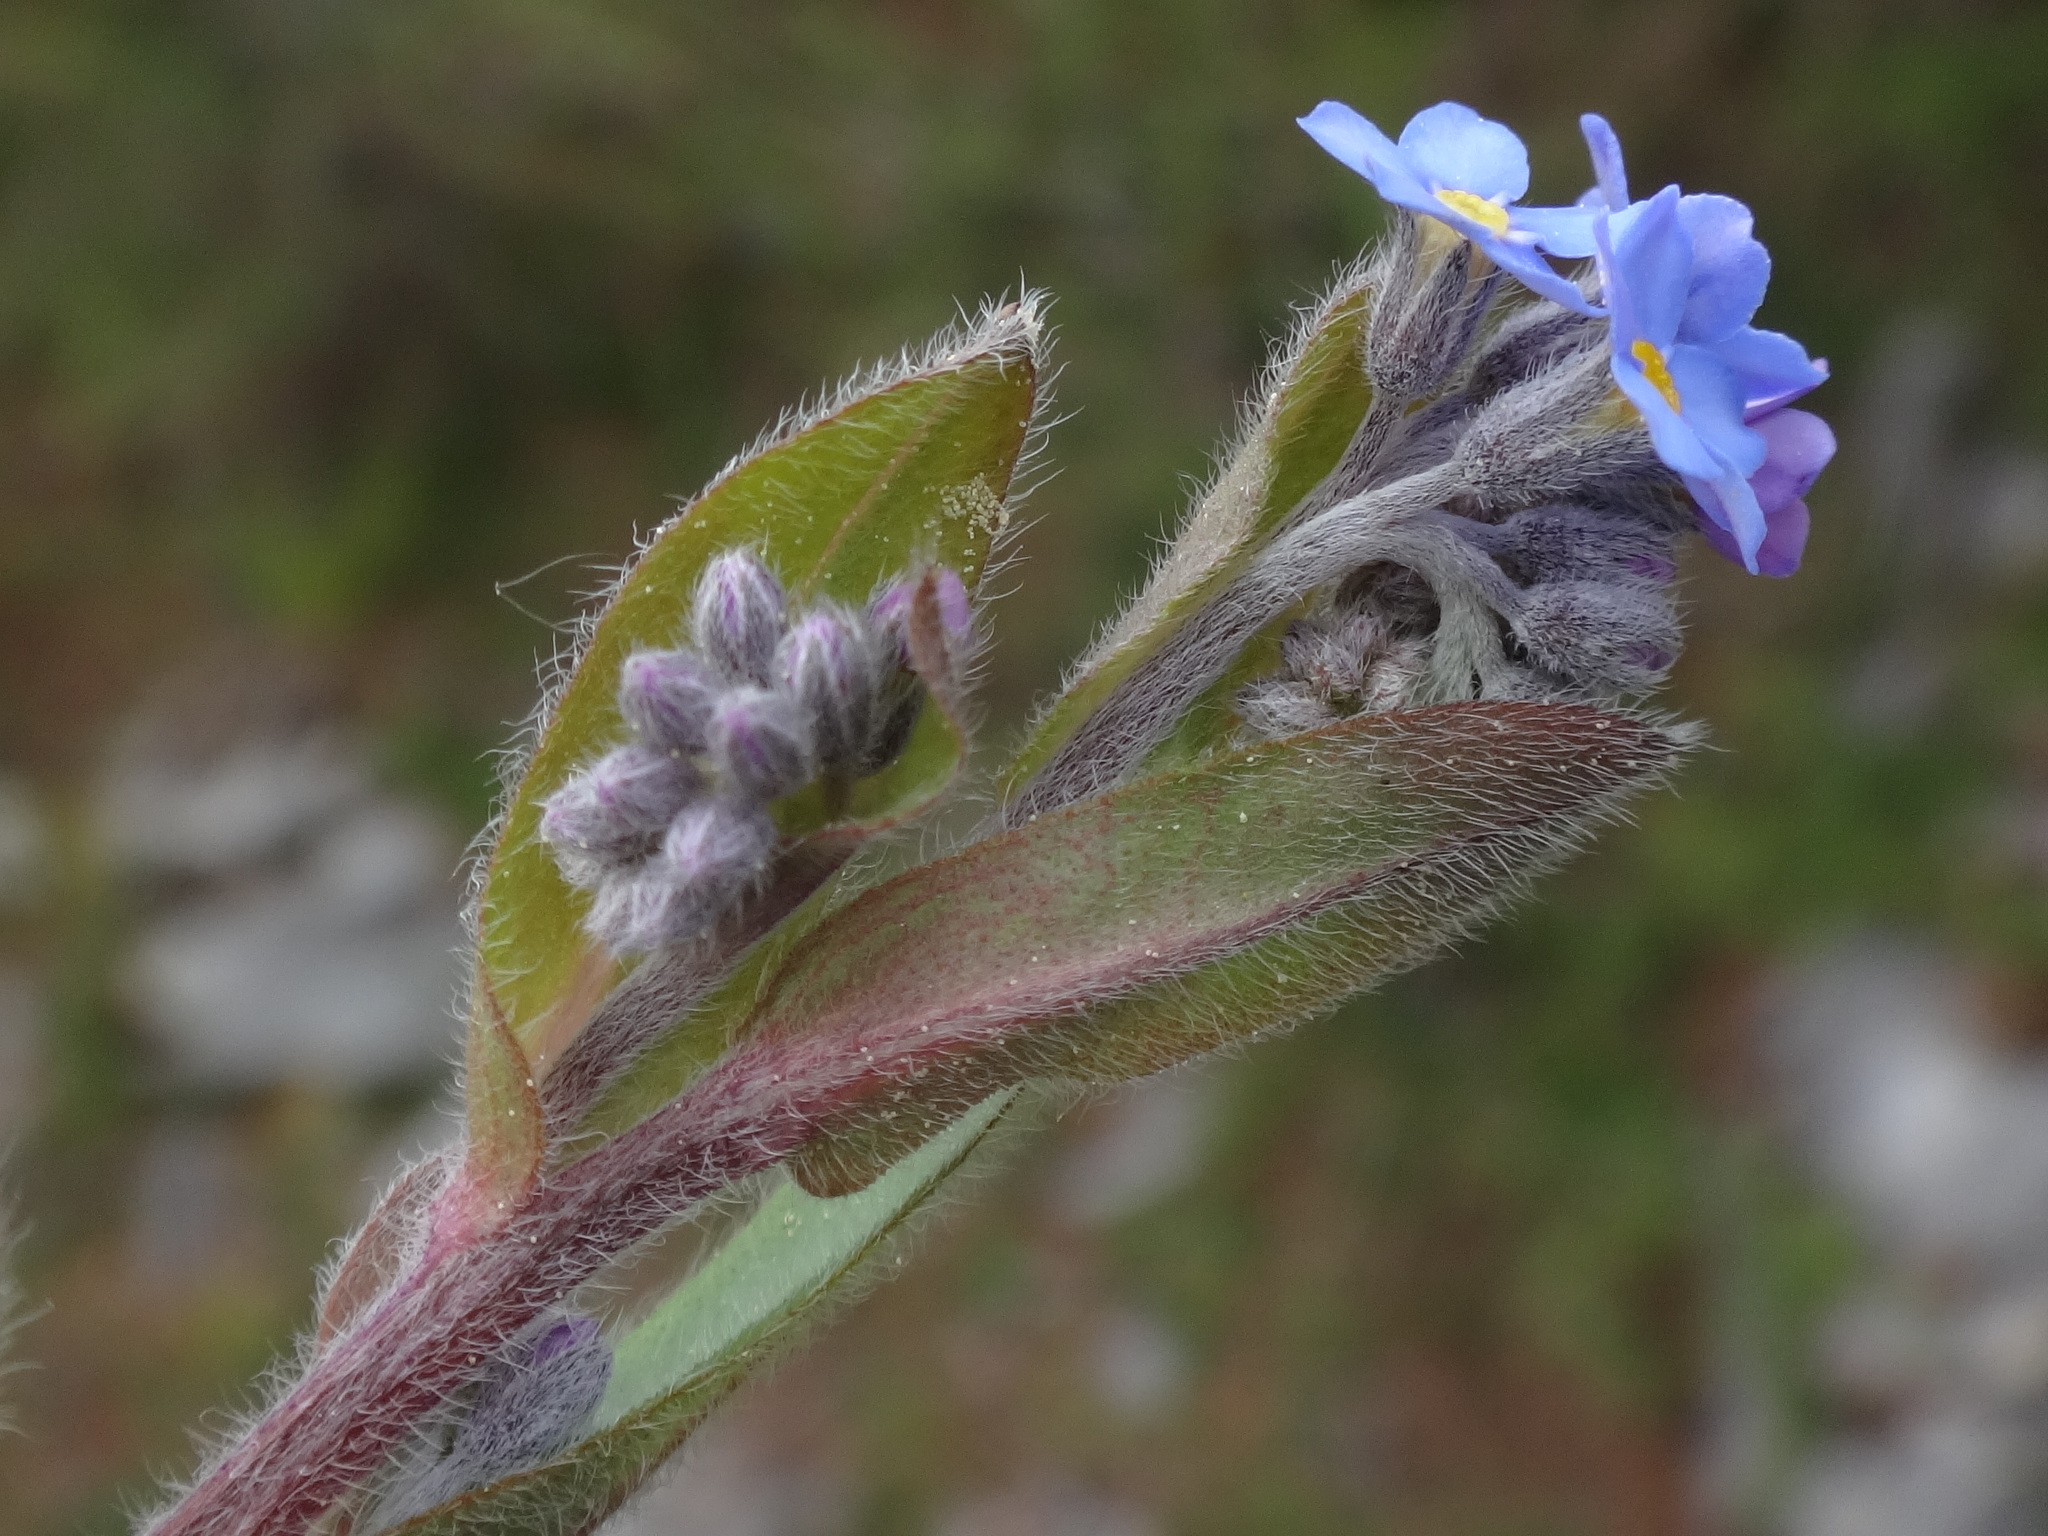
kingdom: Plantae
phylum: Tracheophyta
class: Magnoliopsida
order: Boraginales
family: Boraginaceae
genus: Myosotis
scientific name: Myosotis sylvatica
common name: Wood forget-me-not
